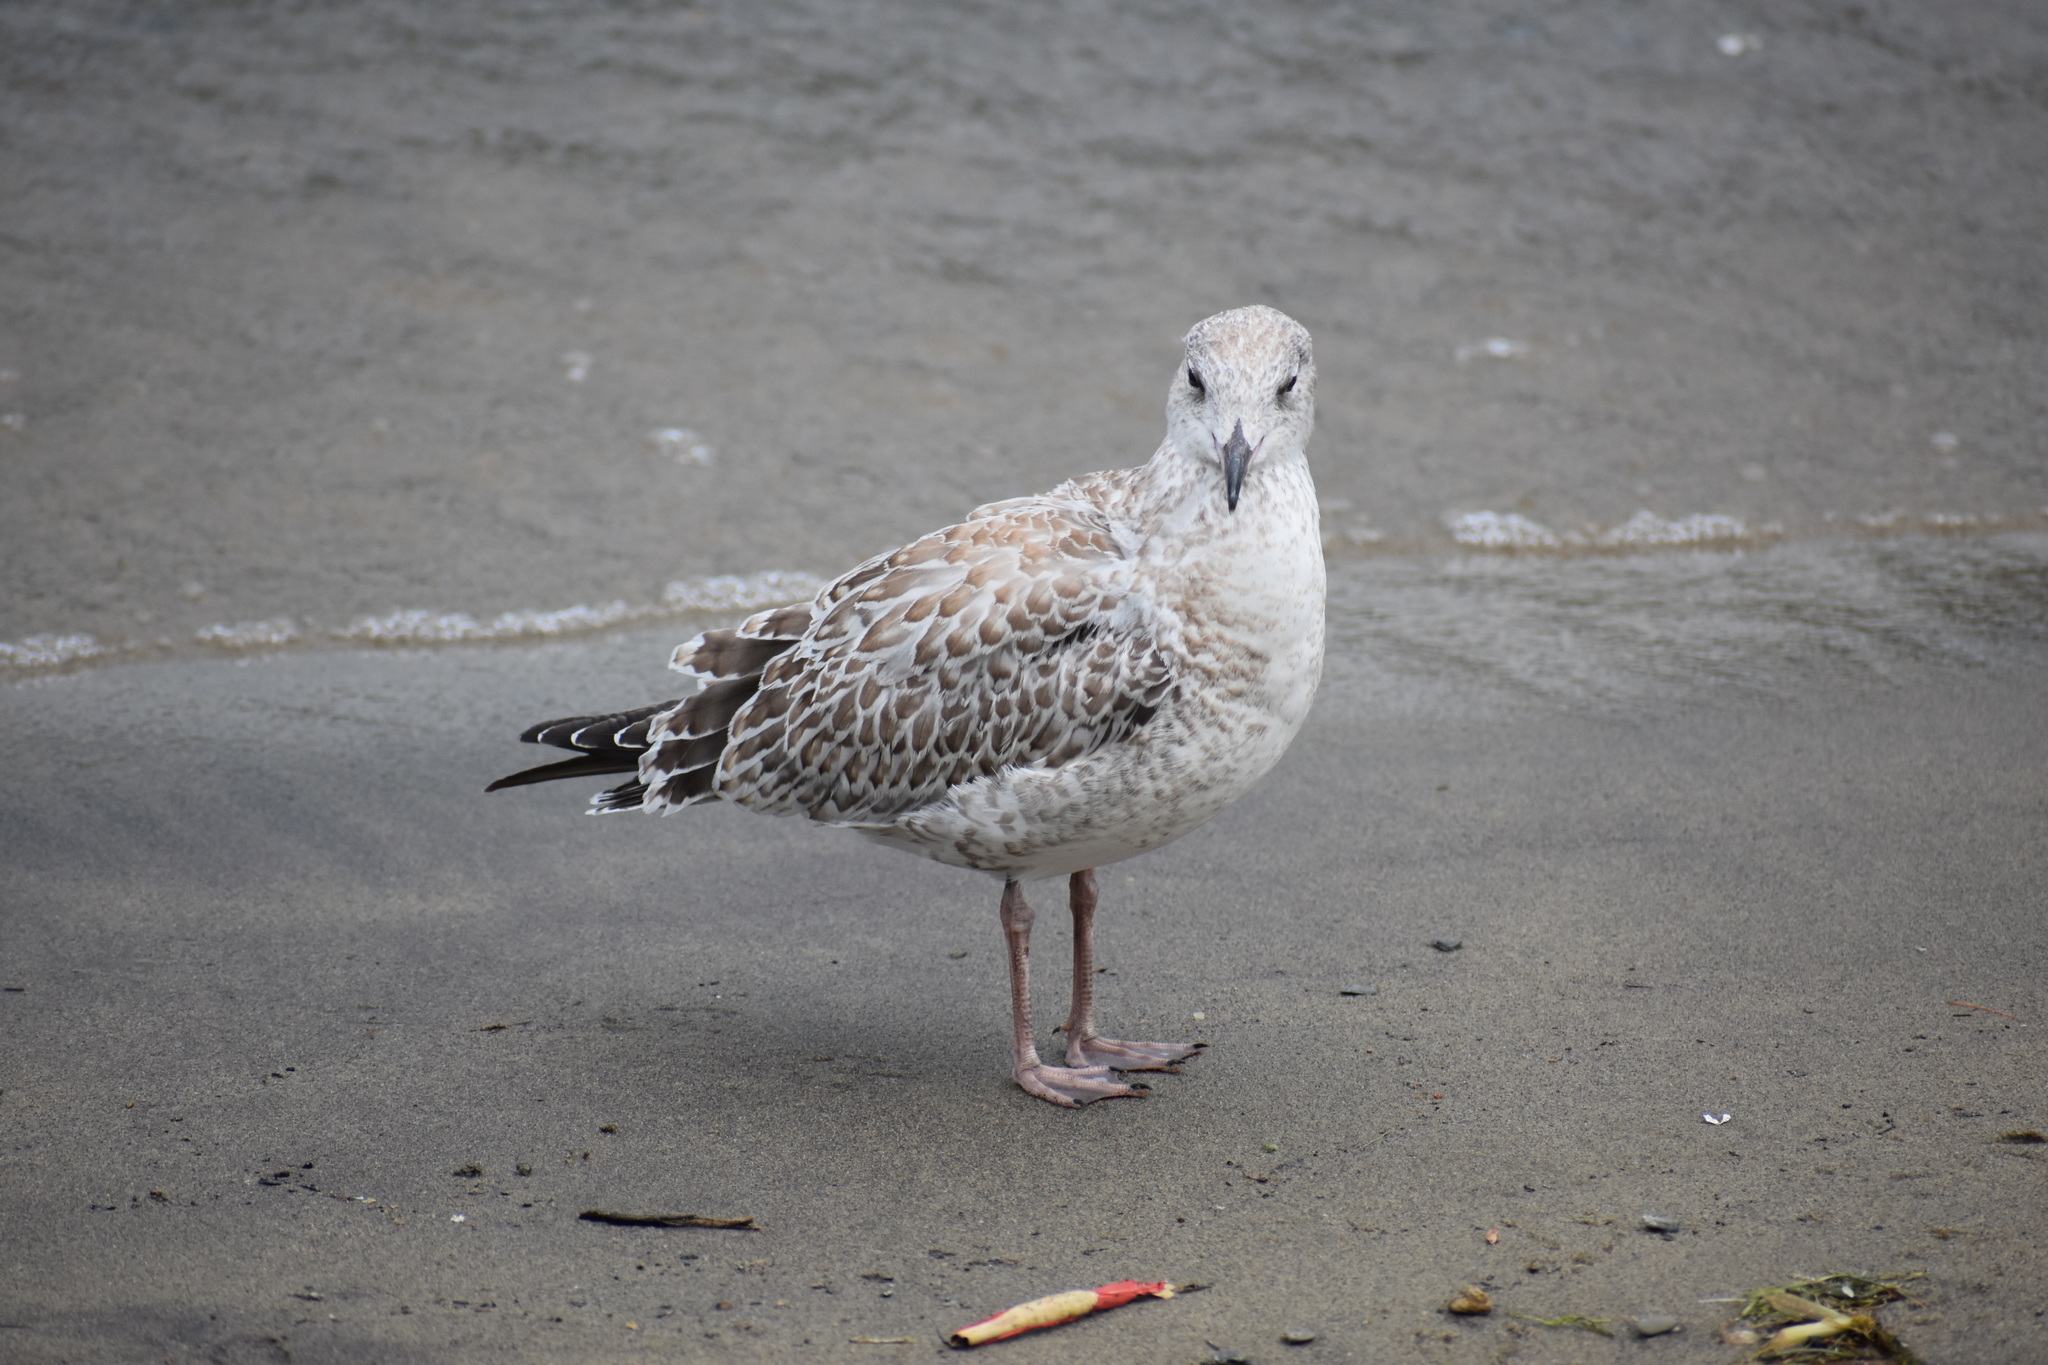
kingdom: Animalia
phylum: Chordata
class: Aves
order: Charadriiformes
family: Laridae
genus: Larus
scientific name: Larus delawarensis
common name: Ring-billed gull
